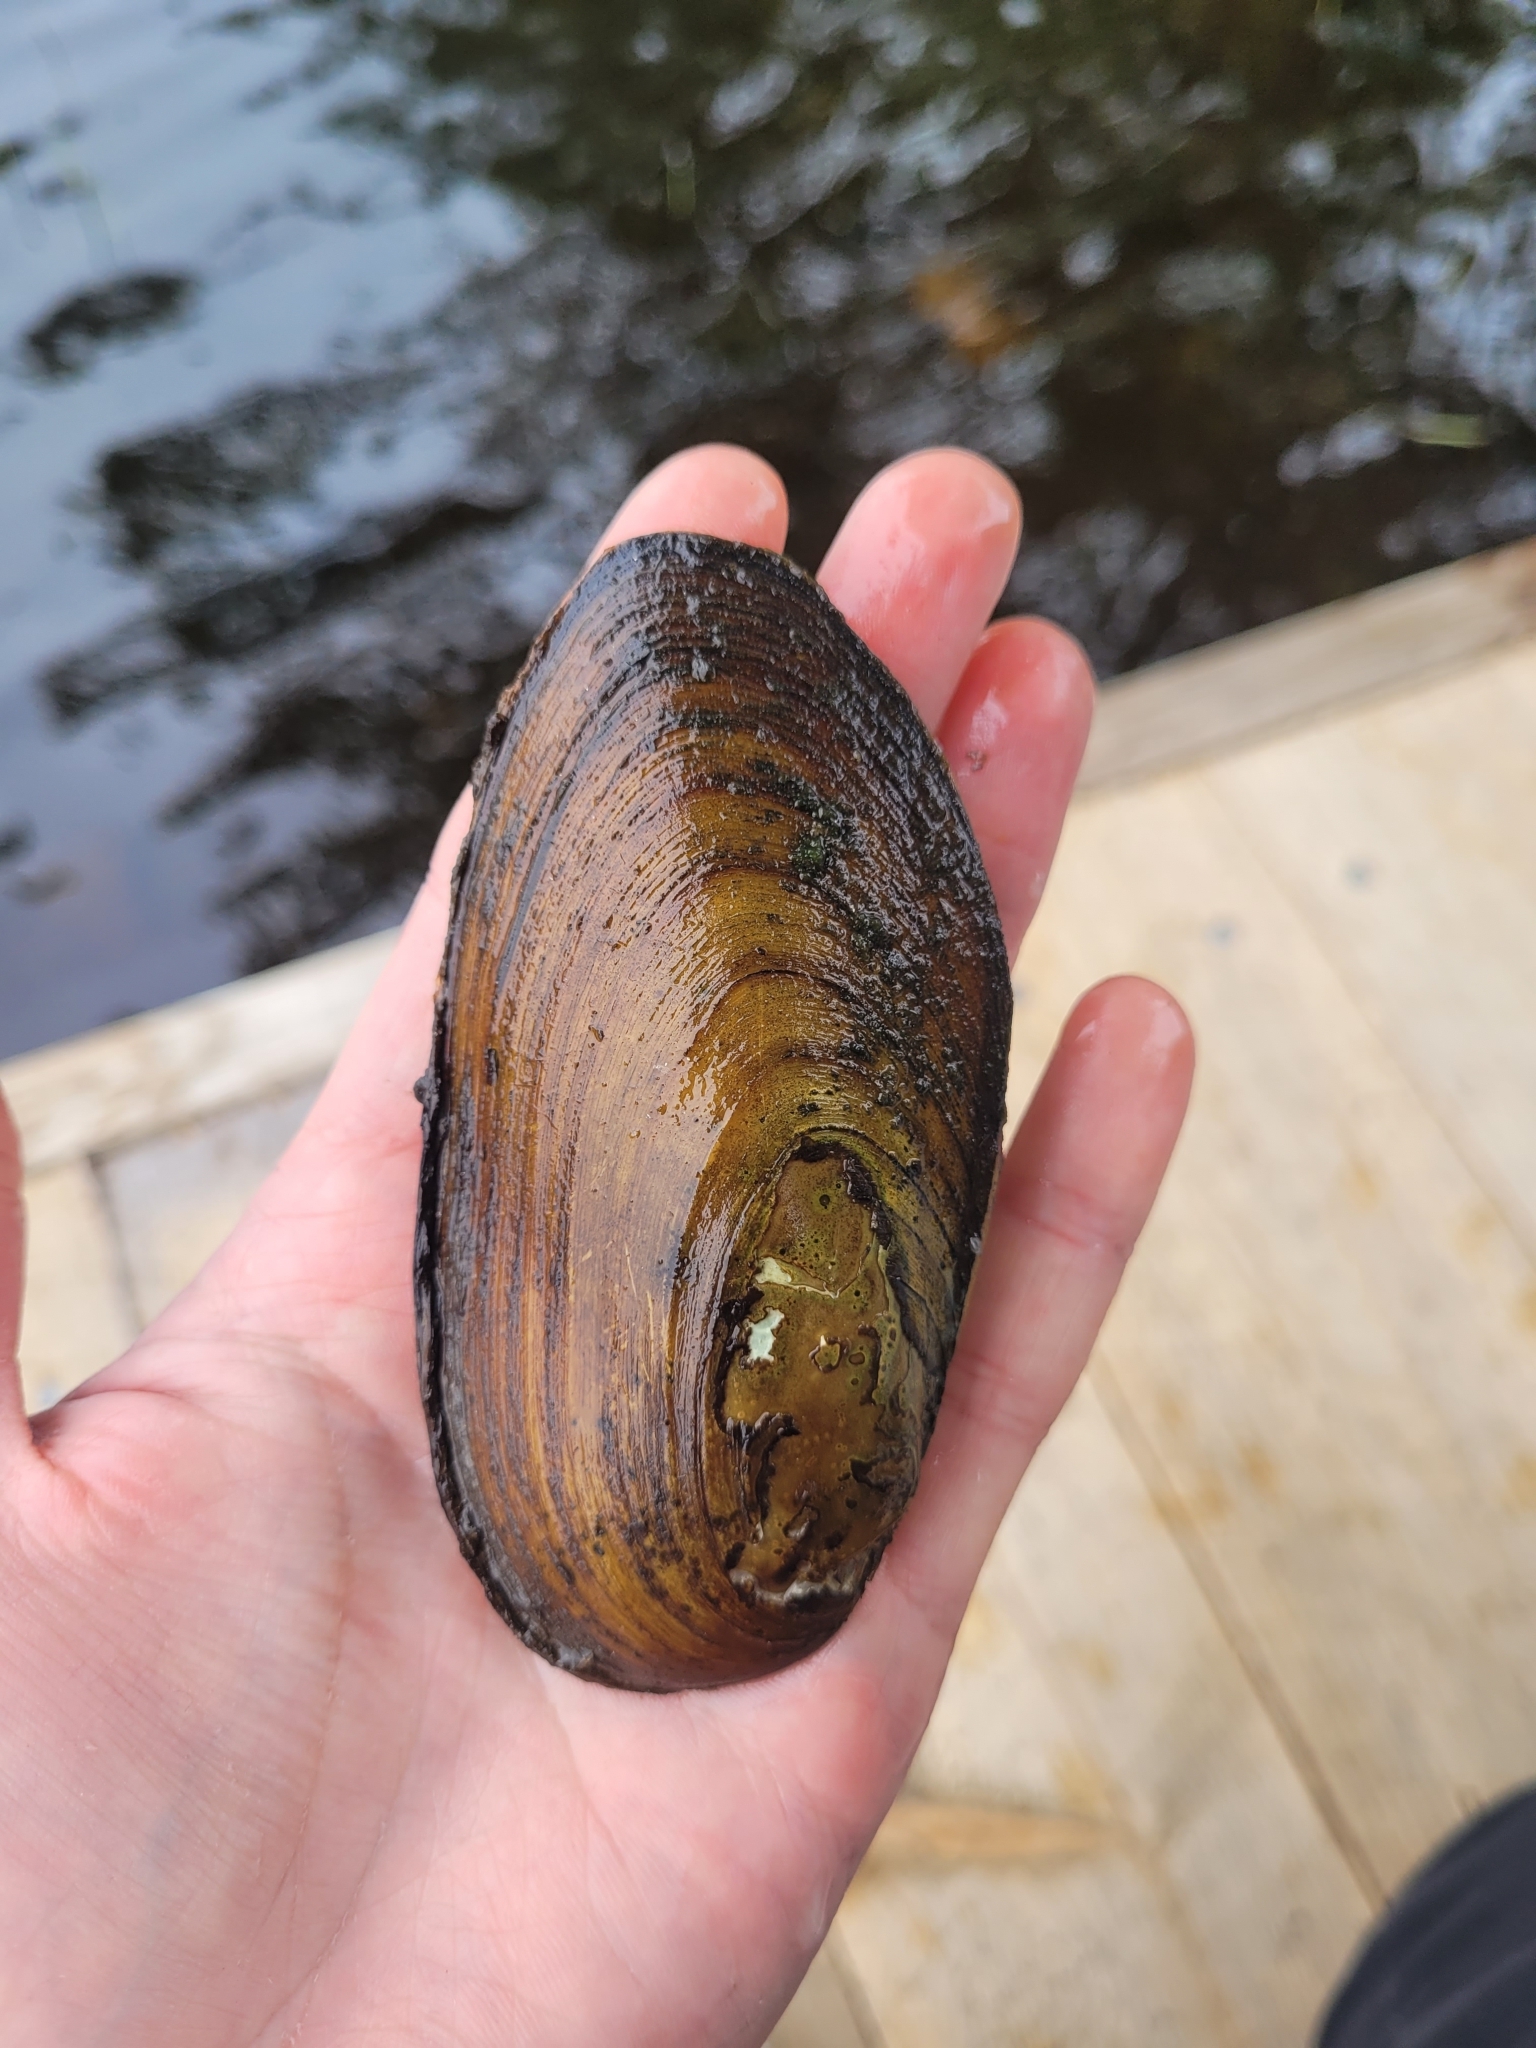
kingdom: Animalia
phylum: Mollusca
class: Bivalvia
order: Unionida
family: Unionidae
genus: Elliptio
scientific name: Elliptio complanata
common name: Eastern elliptio
